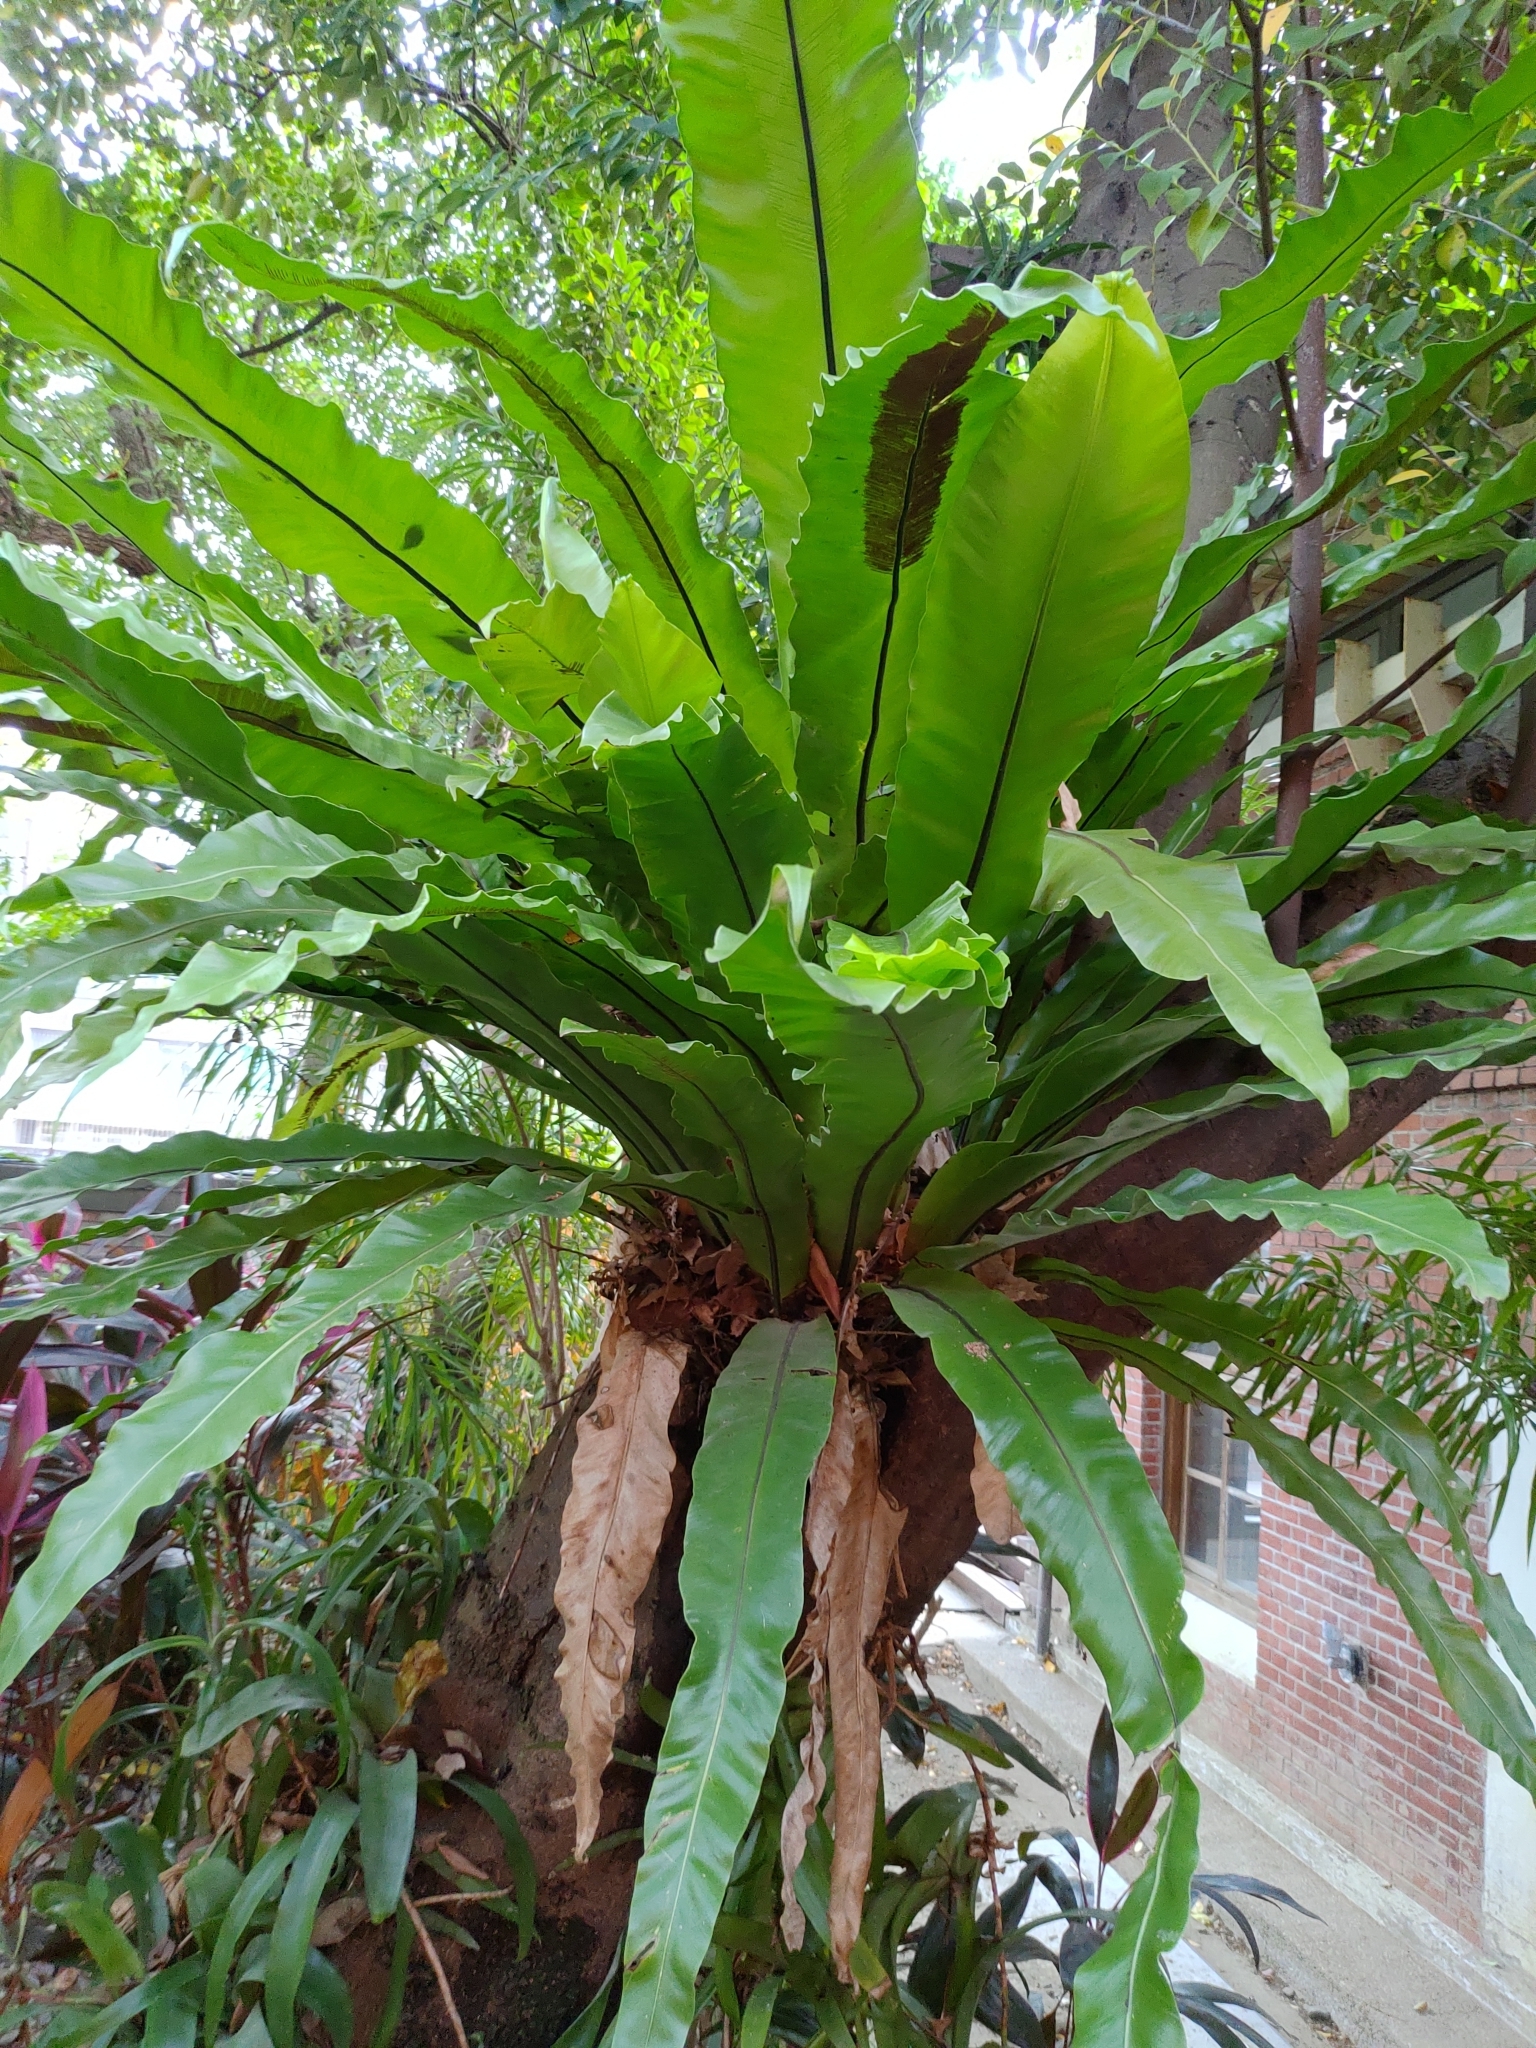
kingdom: Plantae
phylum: Tracheophyta
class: Polypodiopsida
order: Polypodiales
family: Aspleniaceae
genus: Asplenium
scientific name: Asplenium nidus
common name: Bird's-nest fern
